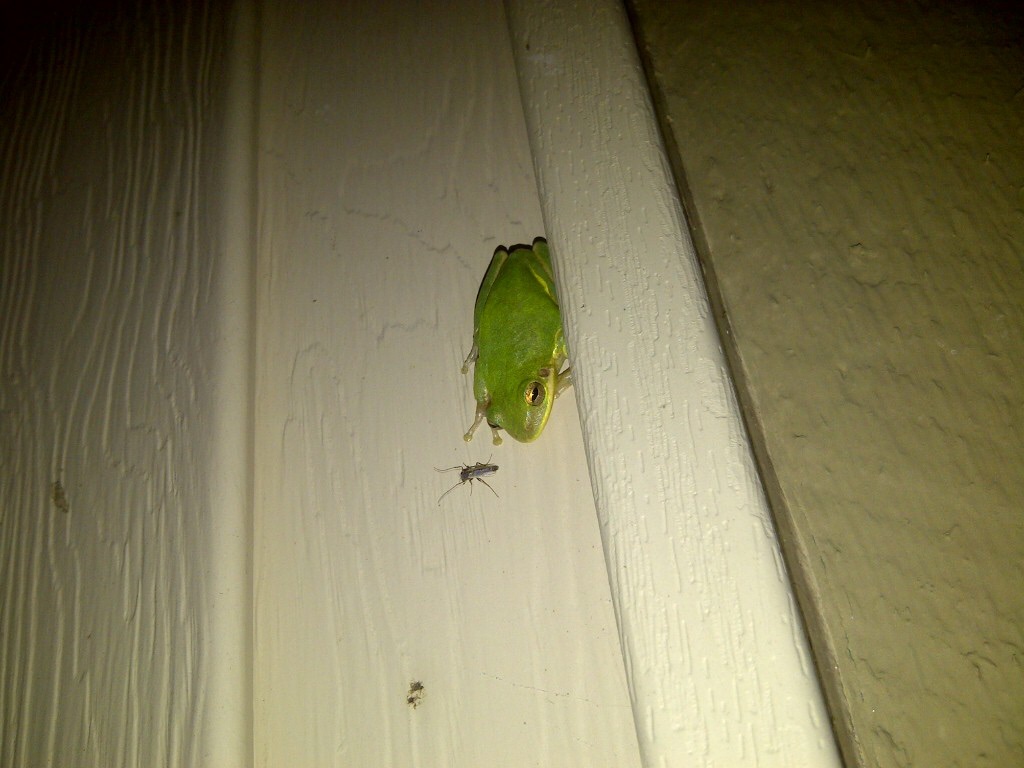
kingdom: Animalia
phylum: Chordata
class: Amphibia
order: Anura
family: Hylidae
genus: Dryophytes
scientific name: Dryophytes gratiosus
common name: Barking treefrog
